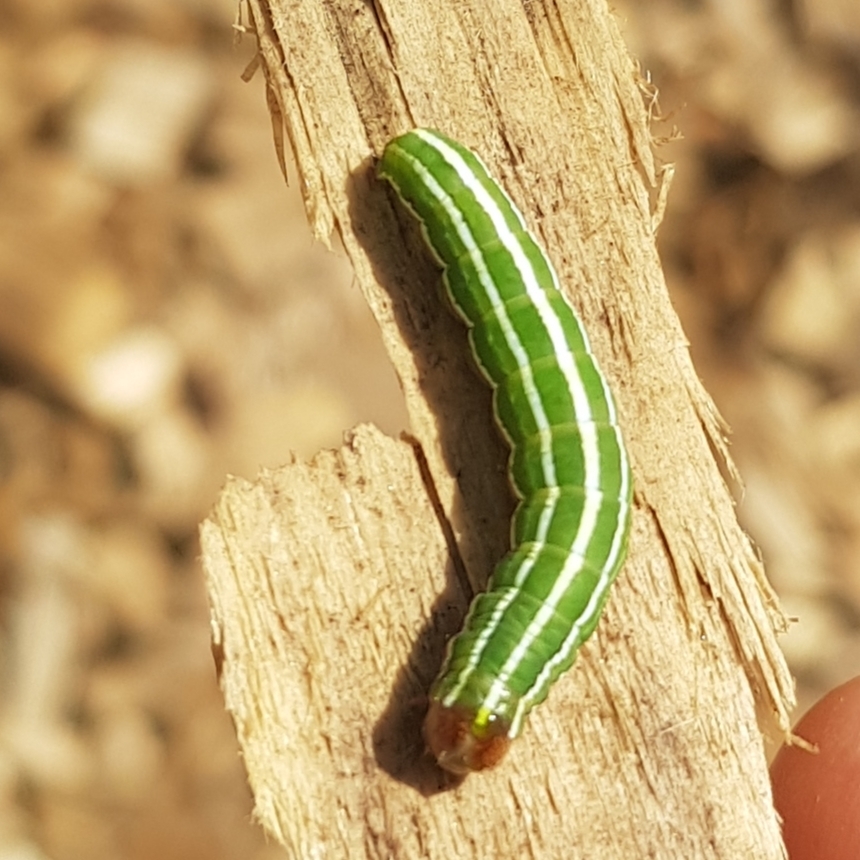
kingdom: Animalia
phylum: Arthropoda
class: Insecta
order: Lepidoptera
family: Noctuidae
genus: Panolis
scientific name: Panolis flammea
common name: Pine beauty
